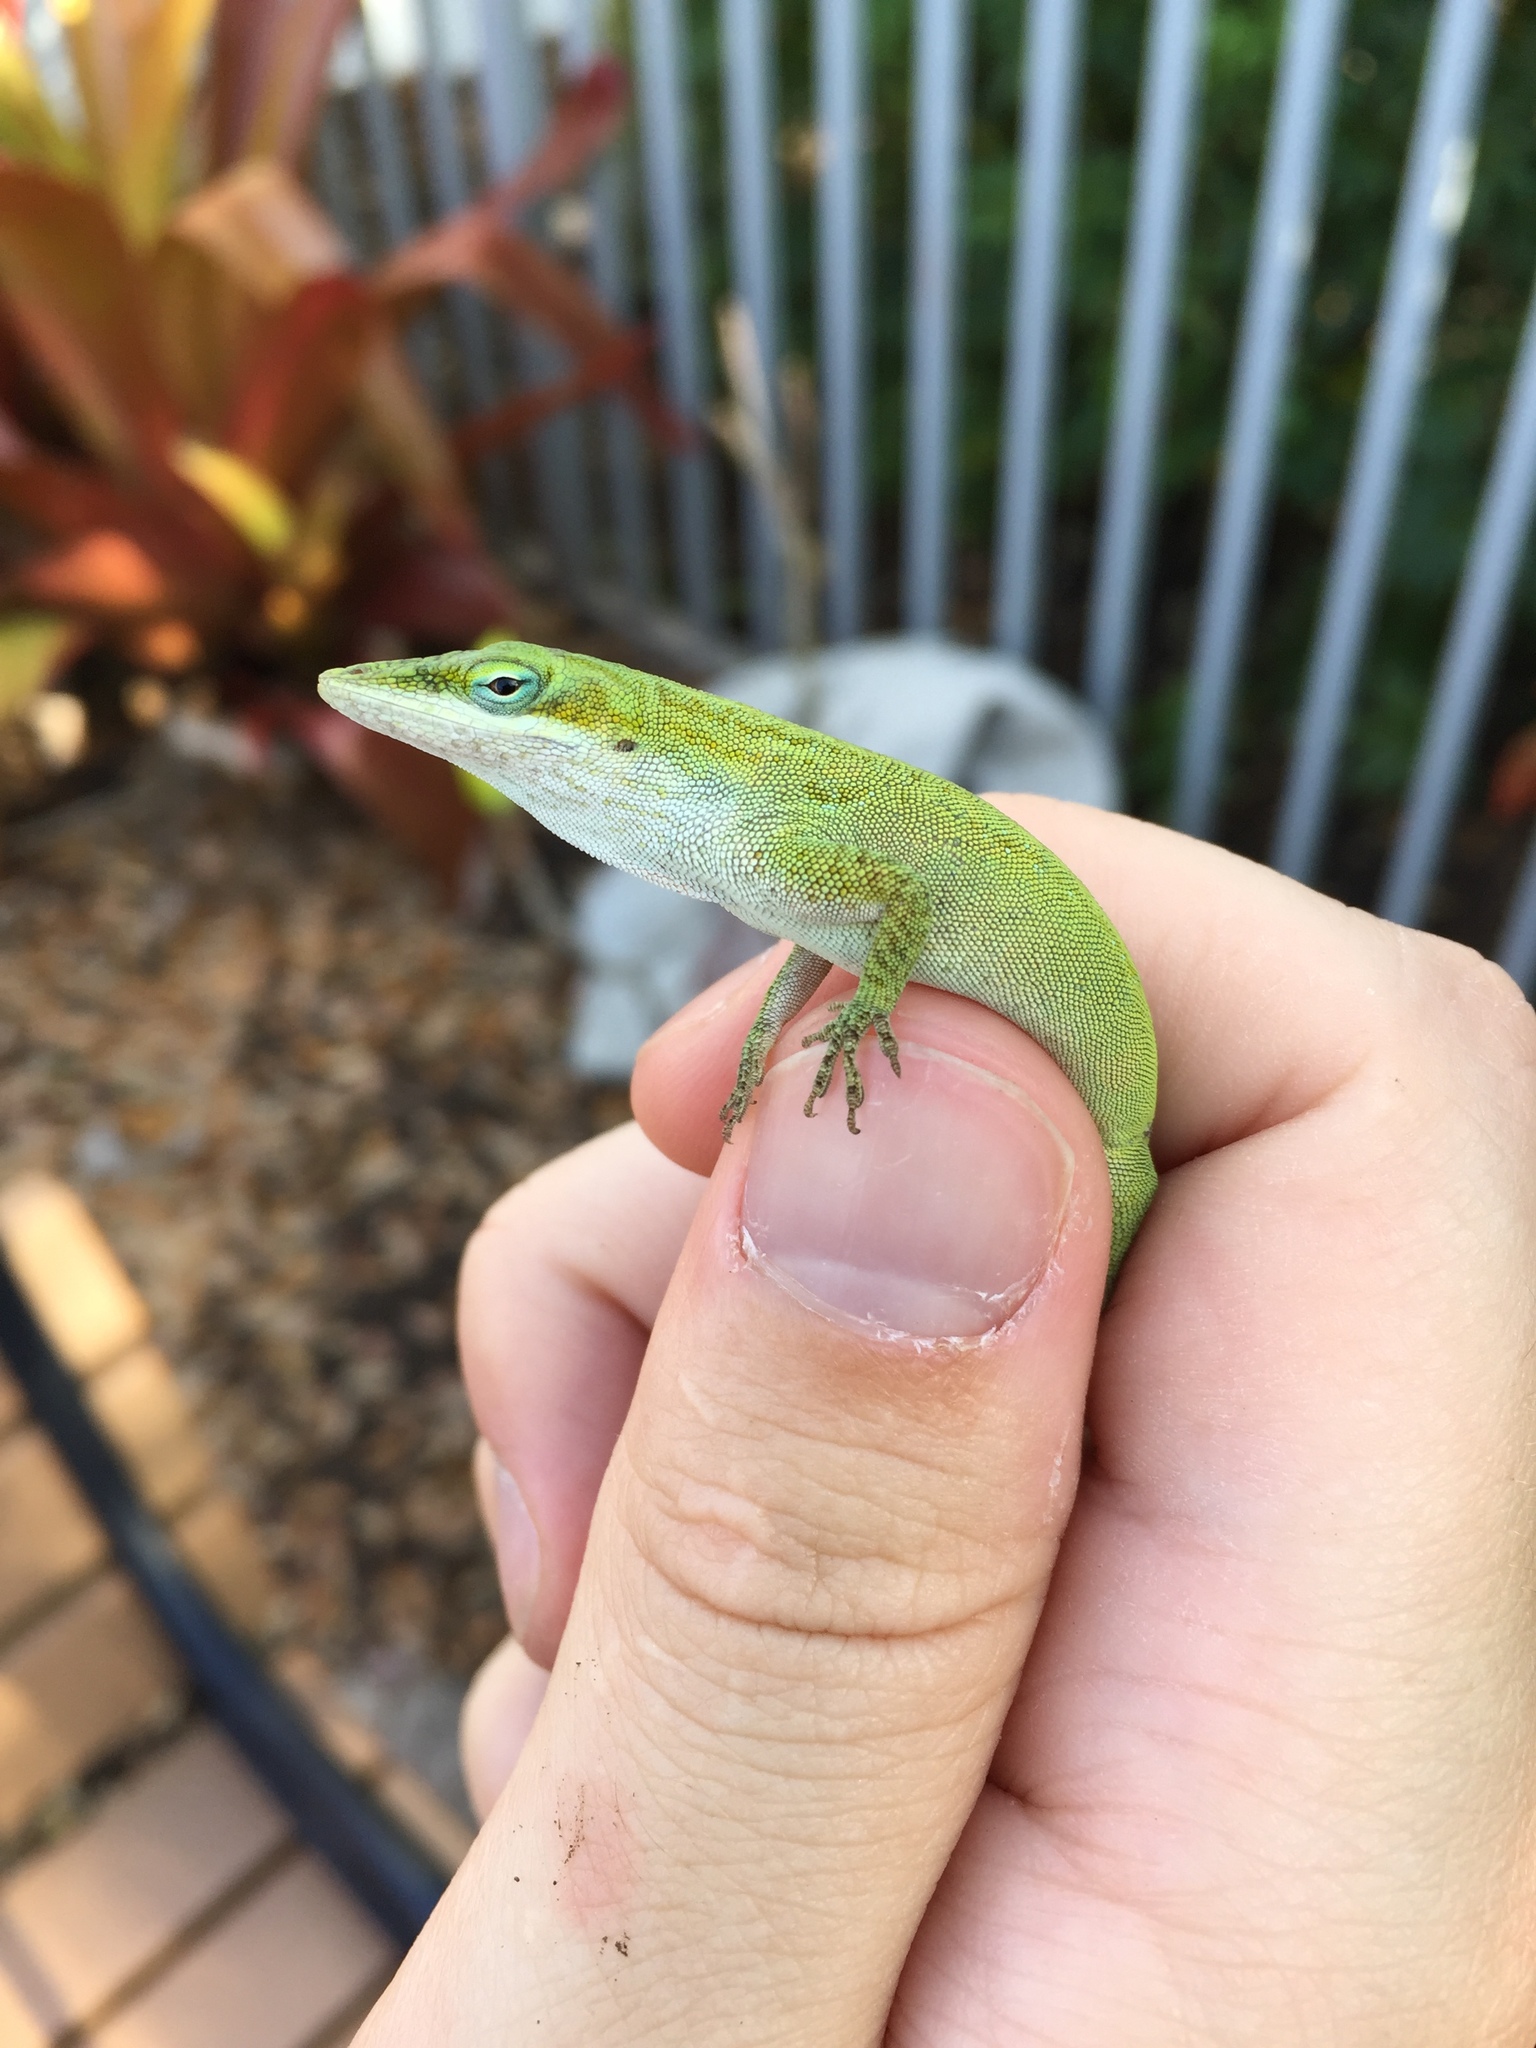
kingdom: Animalia
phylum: Chordata
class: Squamata
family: Dactyloidae
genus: Anolis
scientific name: Anolis carolinensis
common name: Green anole
